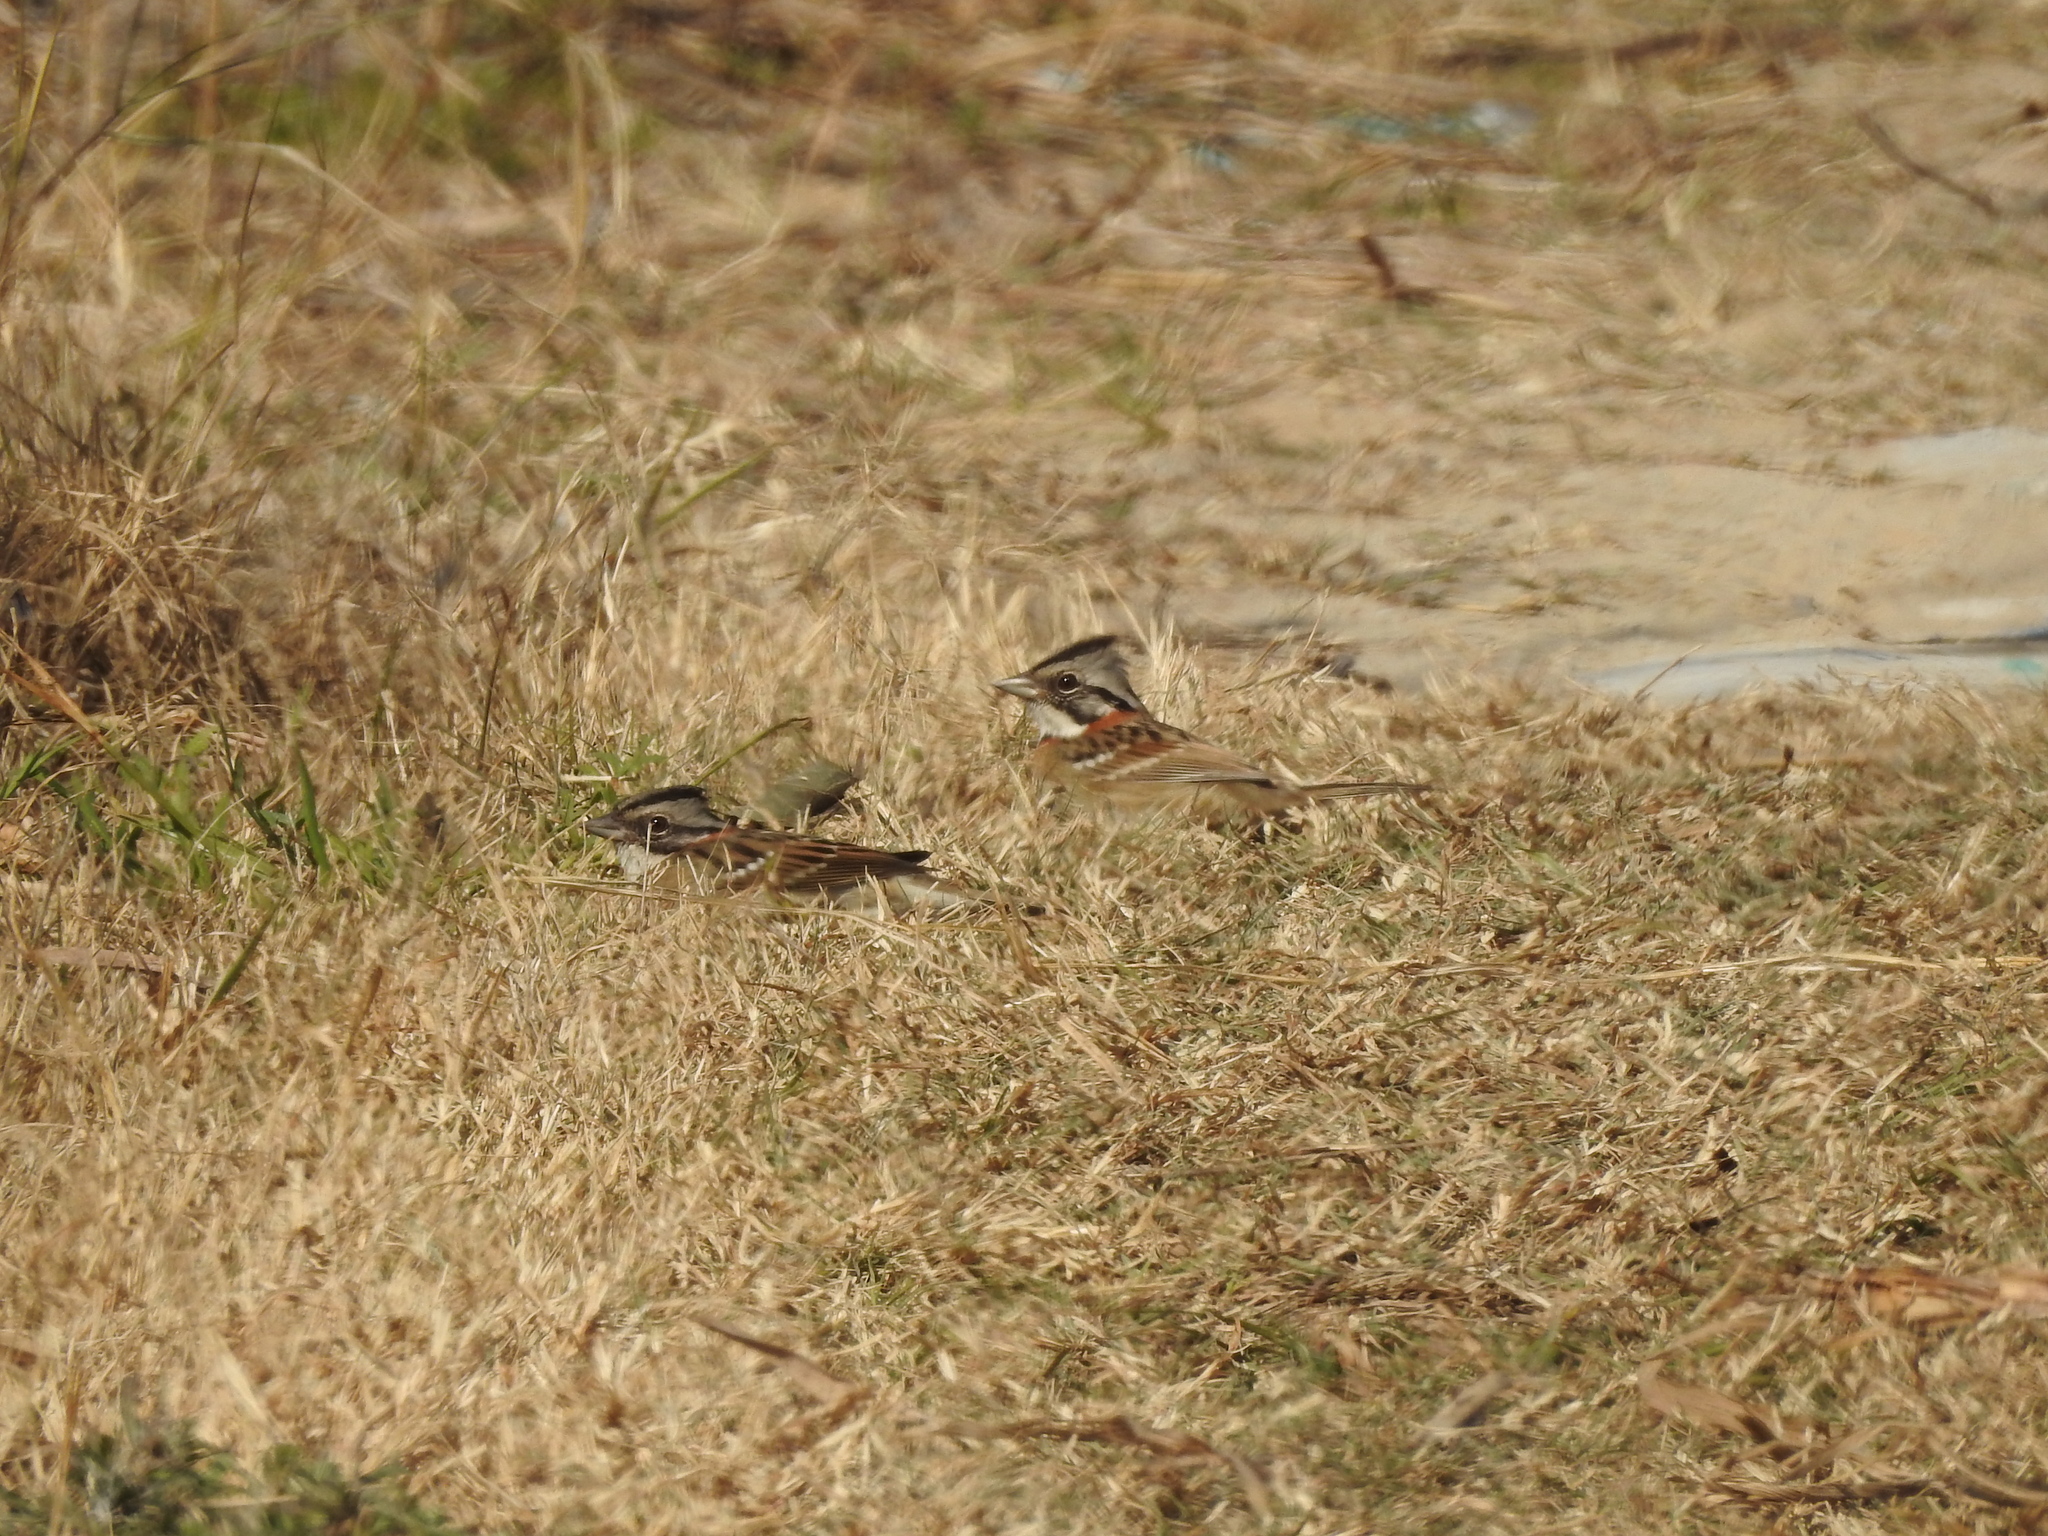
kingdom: Animalia
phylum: Chordata
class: Aves
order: Passeriformes
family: Passerellidae
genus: Zonotrichia
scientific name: Zonotrichia capensis
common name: Rufous-collared sparrow
